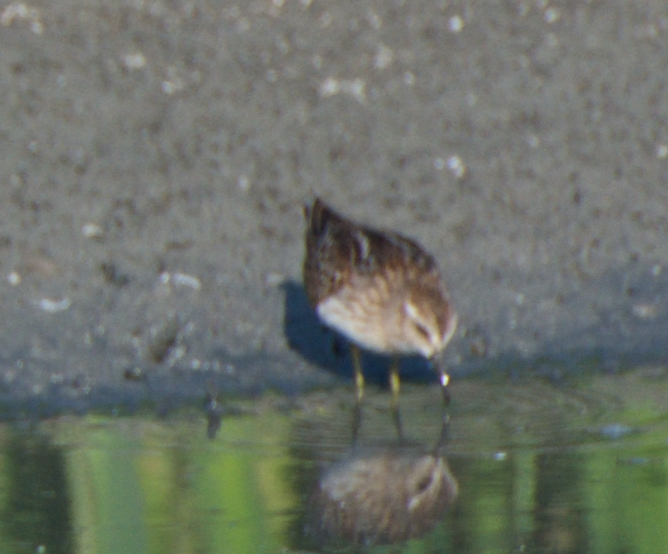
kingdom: Animalia
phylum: Chordata
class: Aves
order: Charadriiformes
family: Scolopacidae
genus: Calidris
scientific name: Calidris minutilla
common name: Least sandpiper
